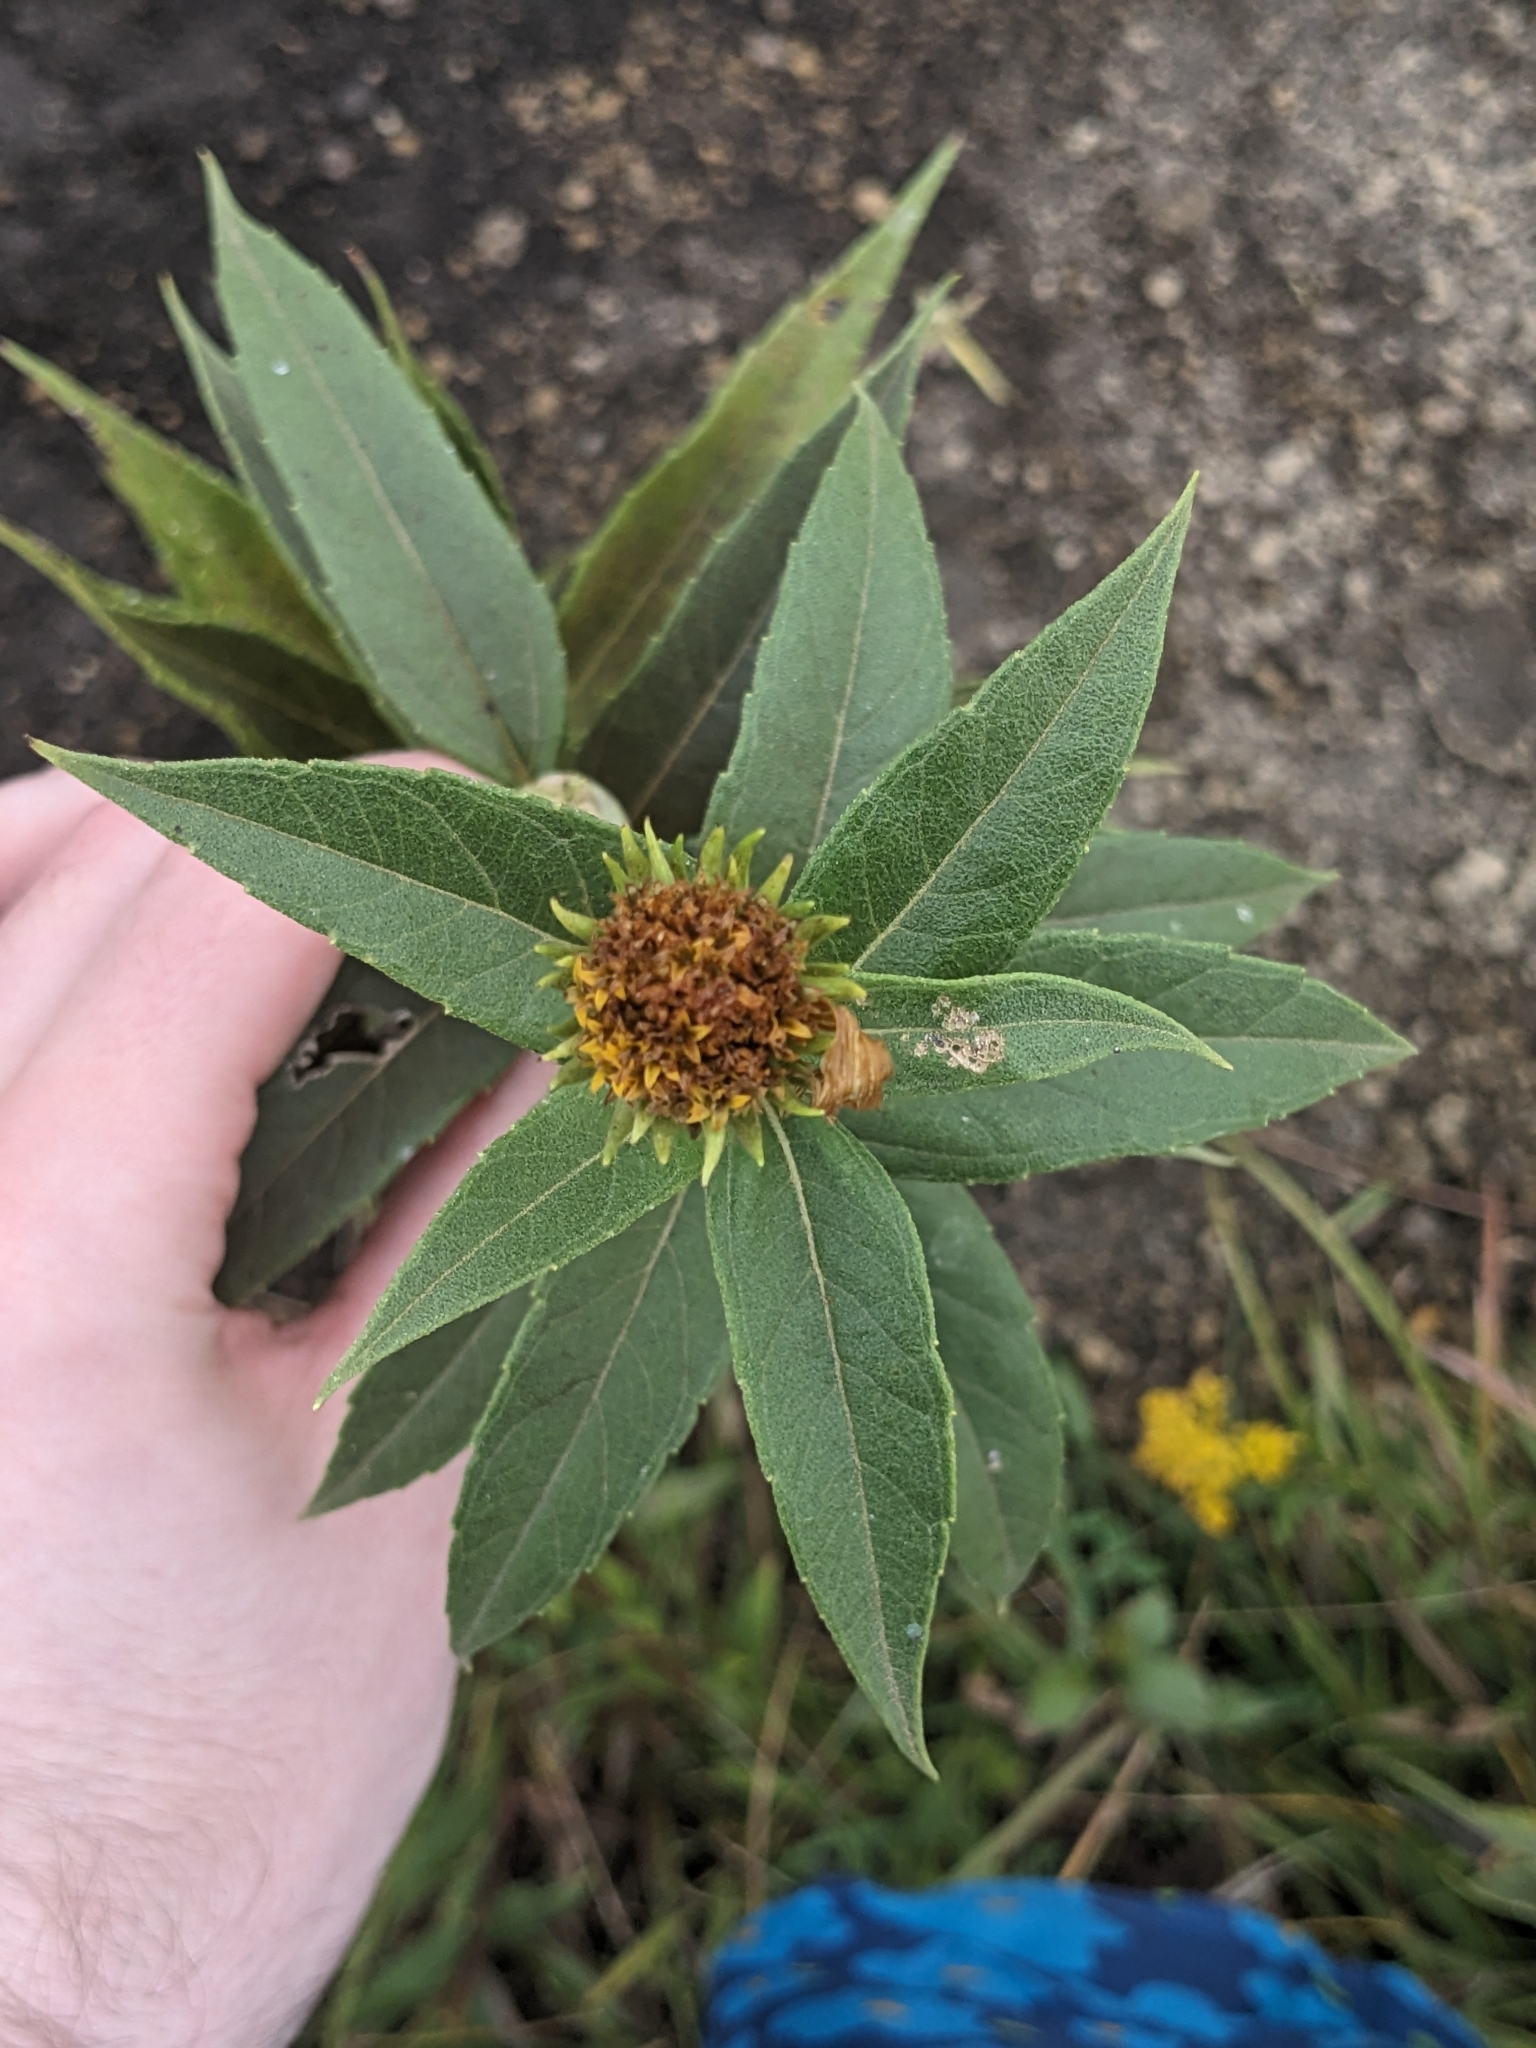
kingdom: Animalia
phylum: Arthropoda
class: Insecta
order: Diptera
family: Cecidomyiidae
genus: Asphondylia
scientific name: Asphondylia helianthiglobulus
